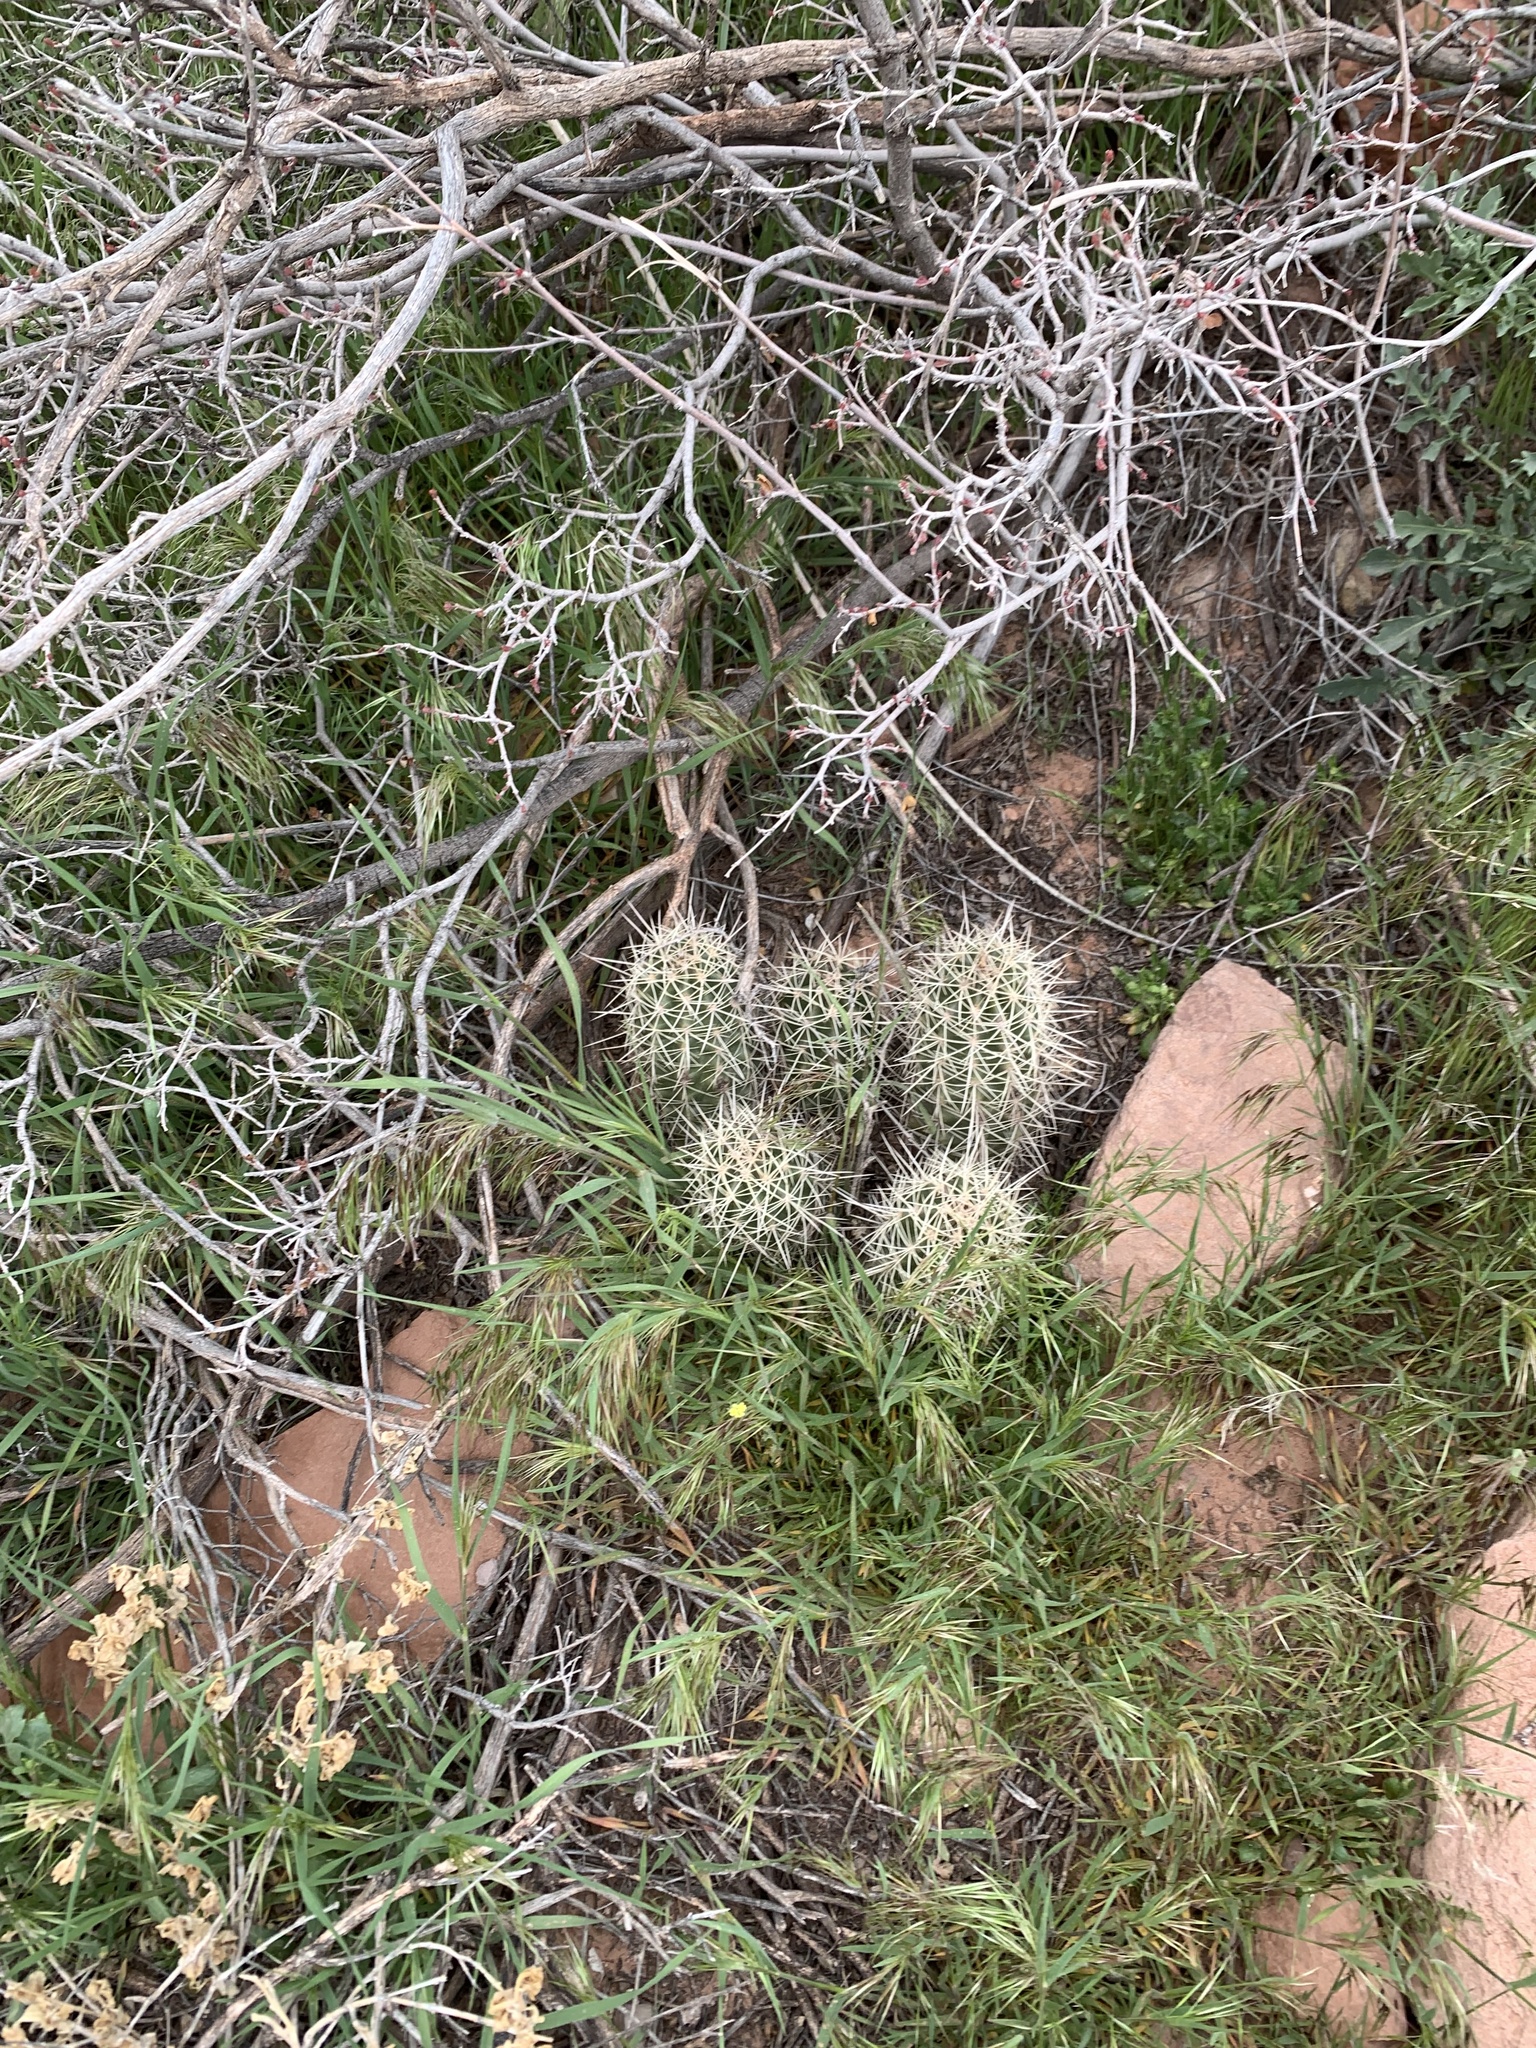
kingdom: Plantae
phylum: Tracheophyta
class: Magnoliopsida
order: Caryophyllales
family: Cactaceae
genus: Echinocereus
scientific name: Echinocereus triglochidiatus
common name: Claretcup hedgehog
